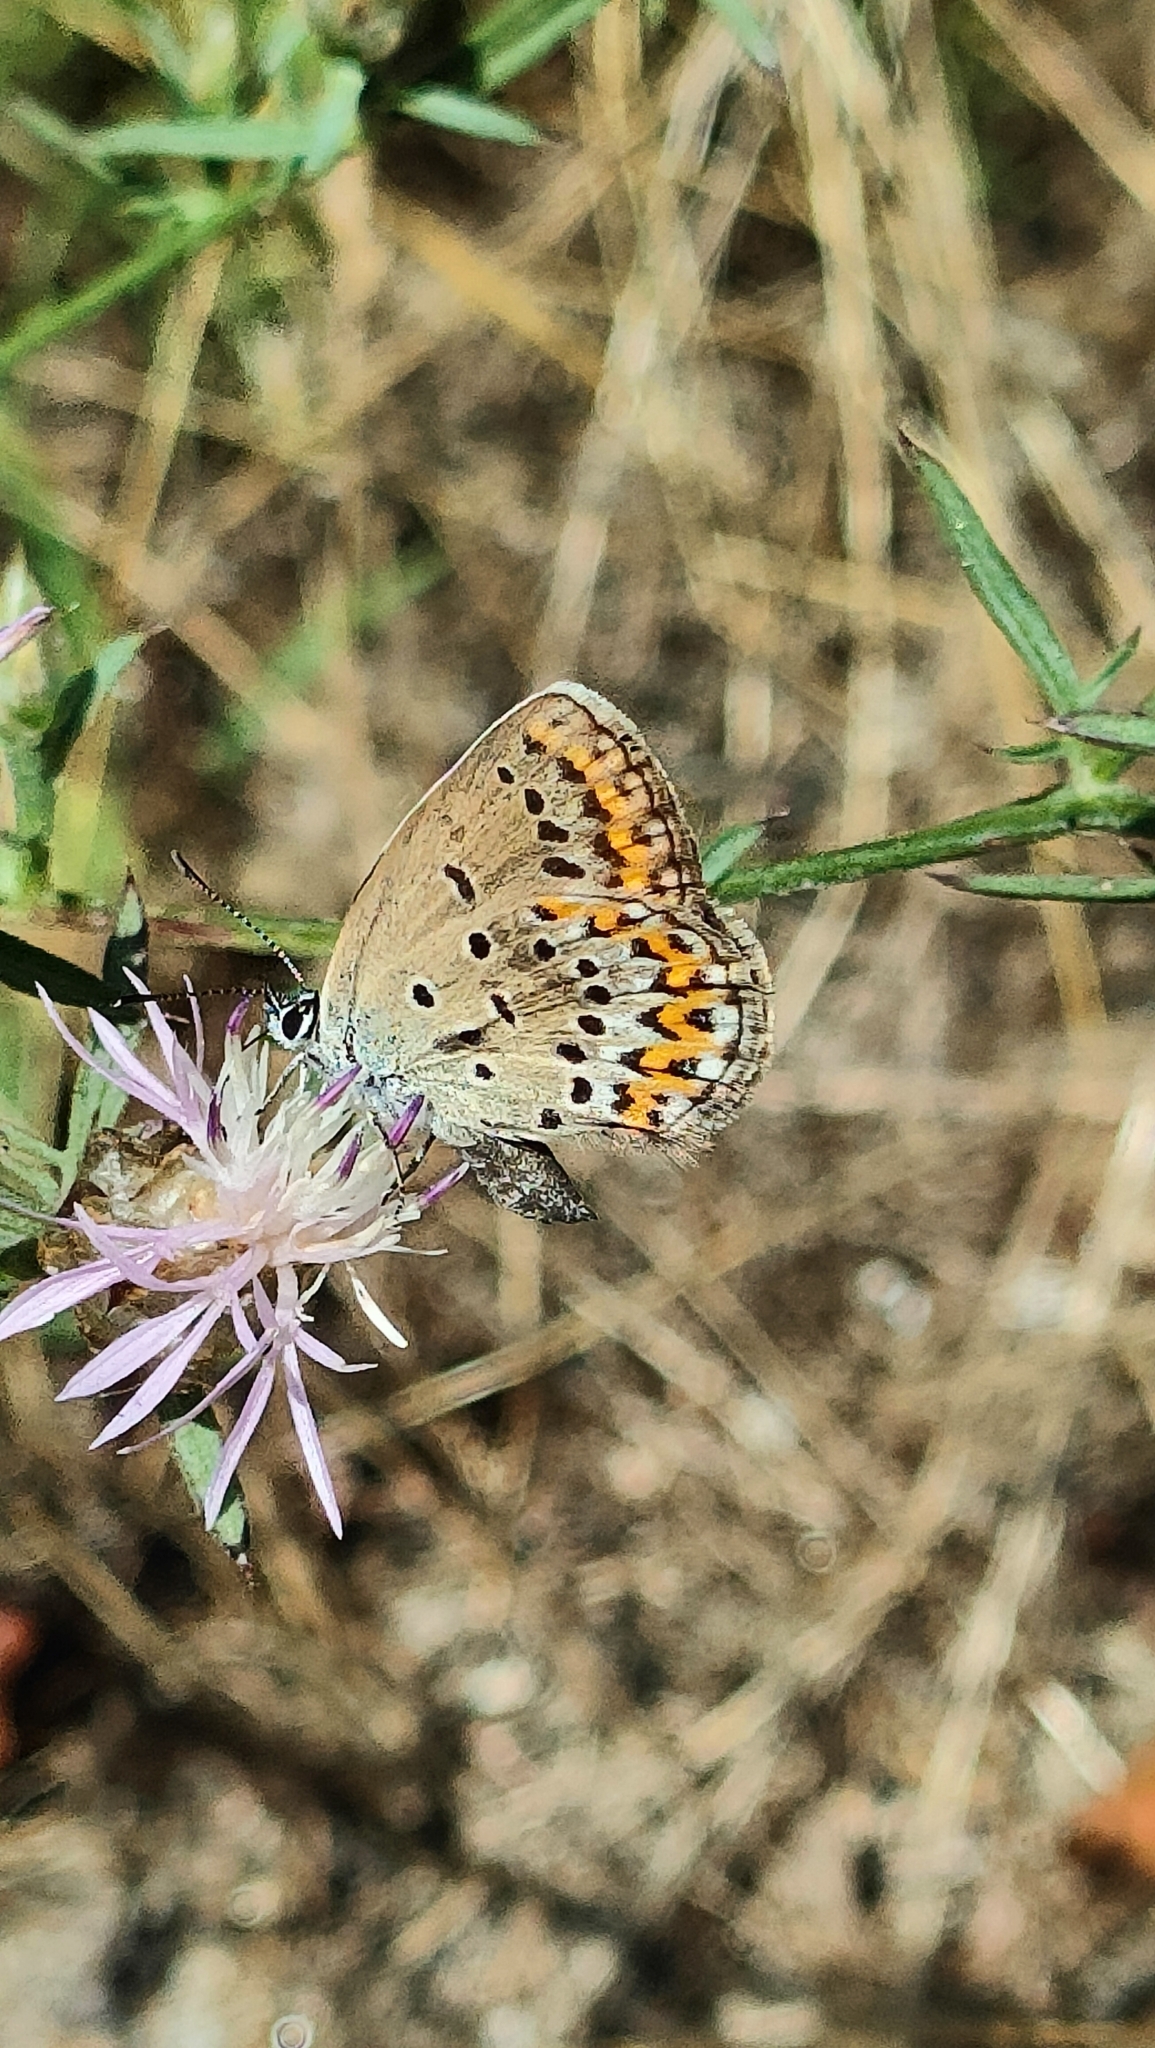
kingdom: Animalia
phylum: Arthropoda
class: Insecta
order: Lepidoptera
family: Lycaenidae
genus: Plebejus
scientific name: Plebejus argyrognomon
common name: Reverdin's blue
